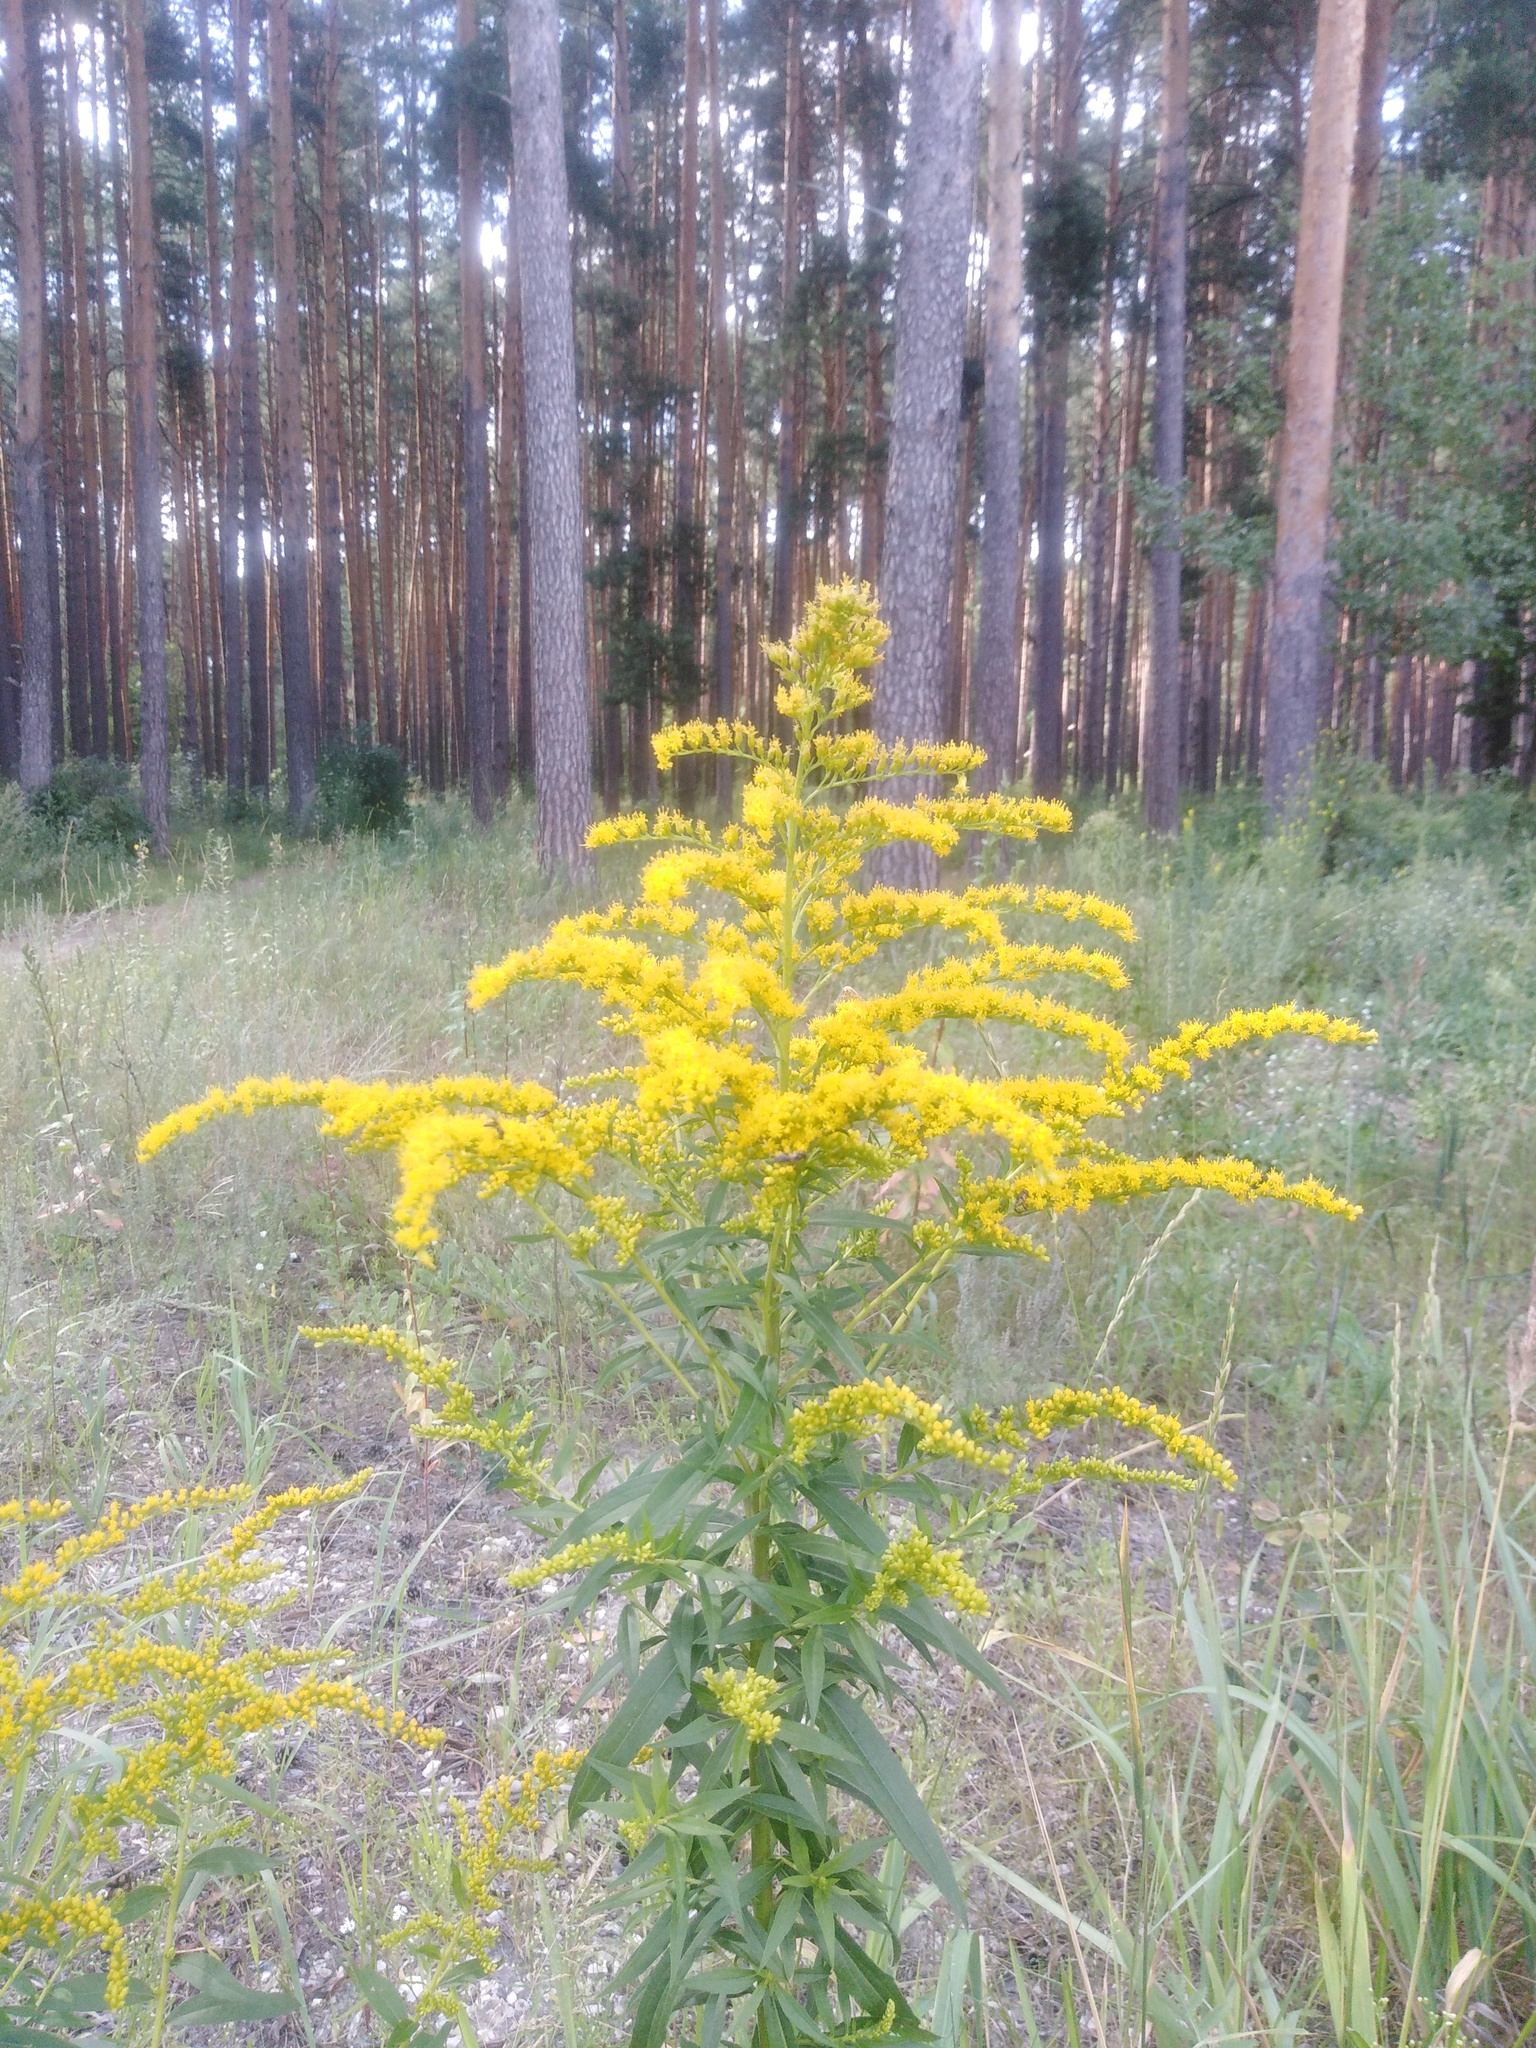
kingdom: Plantae
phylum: Tracheophyta
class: Magnoliopsida
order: Asterales
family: Asteraceae
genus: Solidago
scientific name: Solidago canadensis
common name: Canada goldenrod
